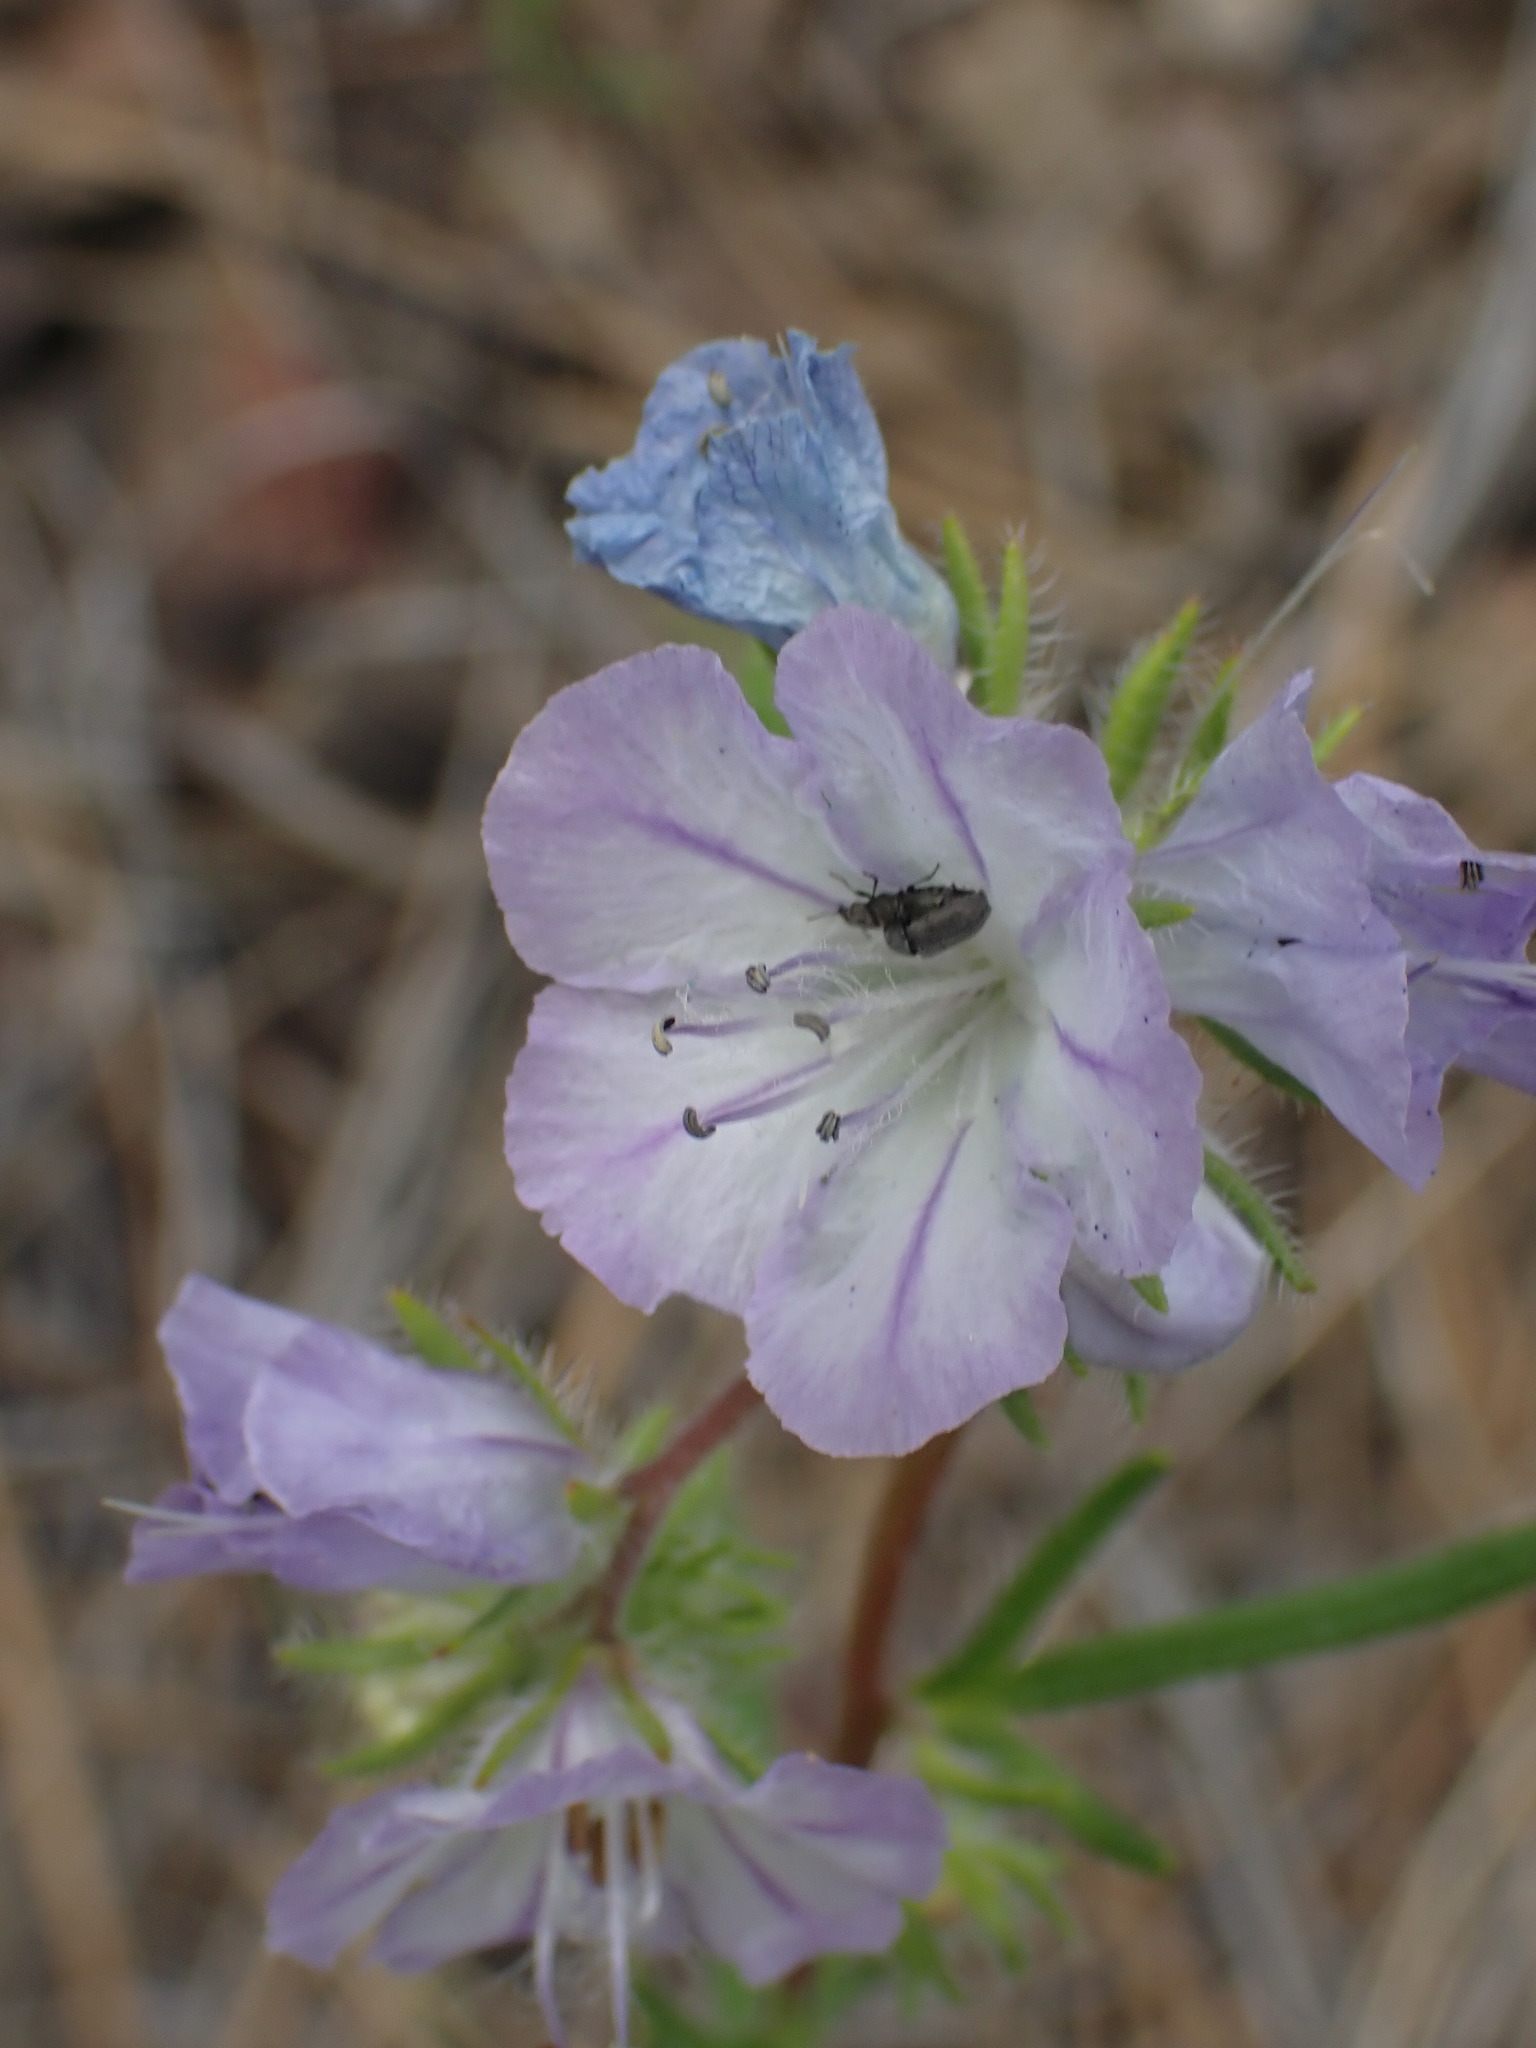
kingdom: Plantae
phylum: Tracheophyta
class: Magnoliopsida
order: Boraginales
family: Hydrophyllaceae
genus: Phacelia
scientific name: Phacelia linearis
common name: Linear-leaved phacelia
